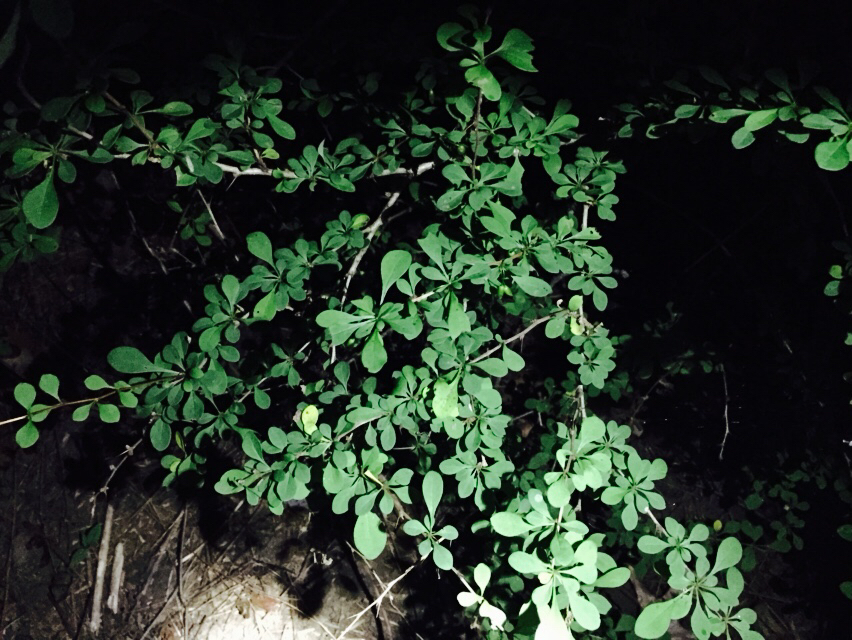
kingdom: Plantae
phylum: Tracheophyta
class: Magnoliopsida
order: Ranunculales
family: Berberidaceae
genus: Berberis
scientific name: Berberis thunbergii
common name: Japanese barberry
